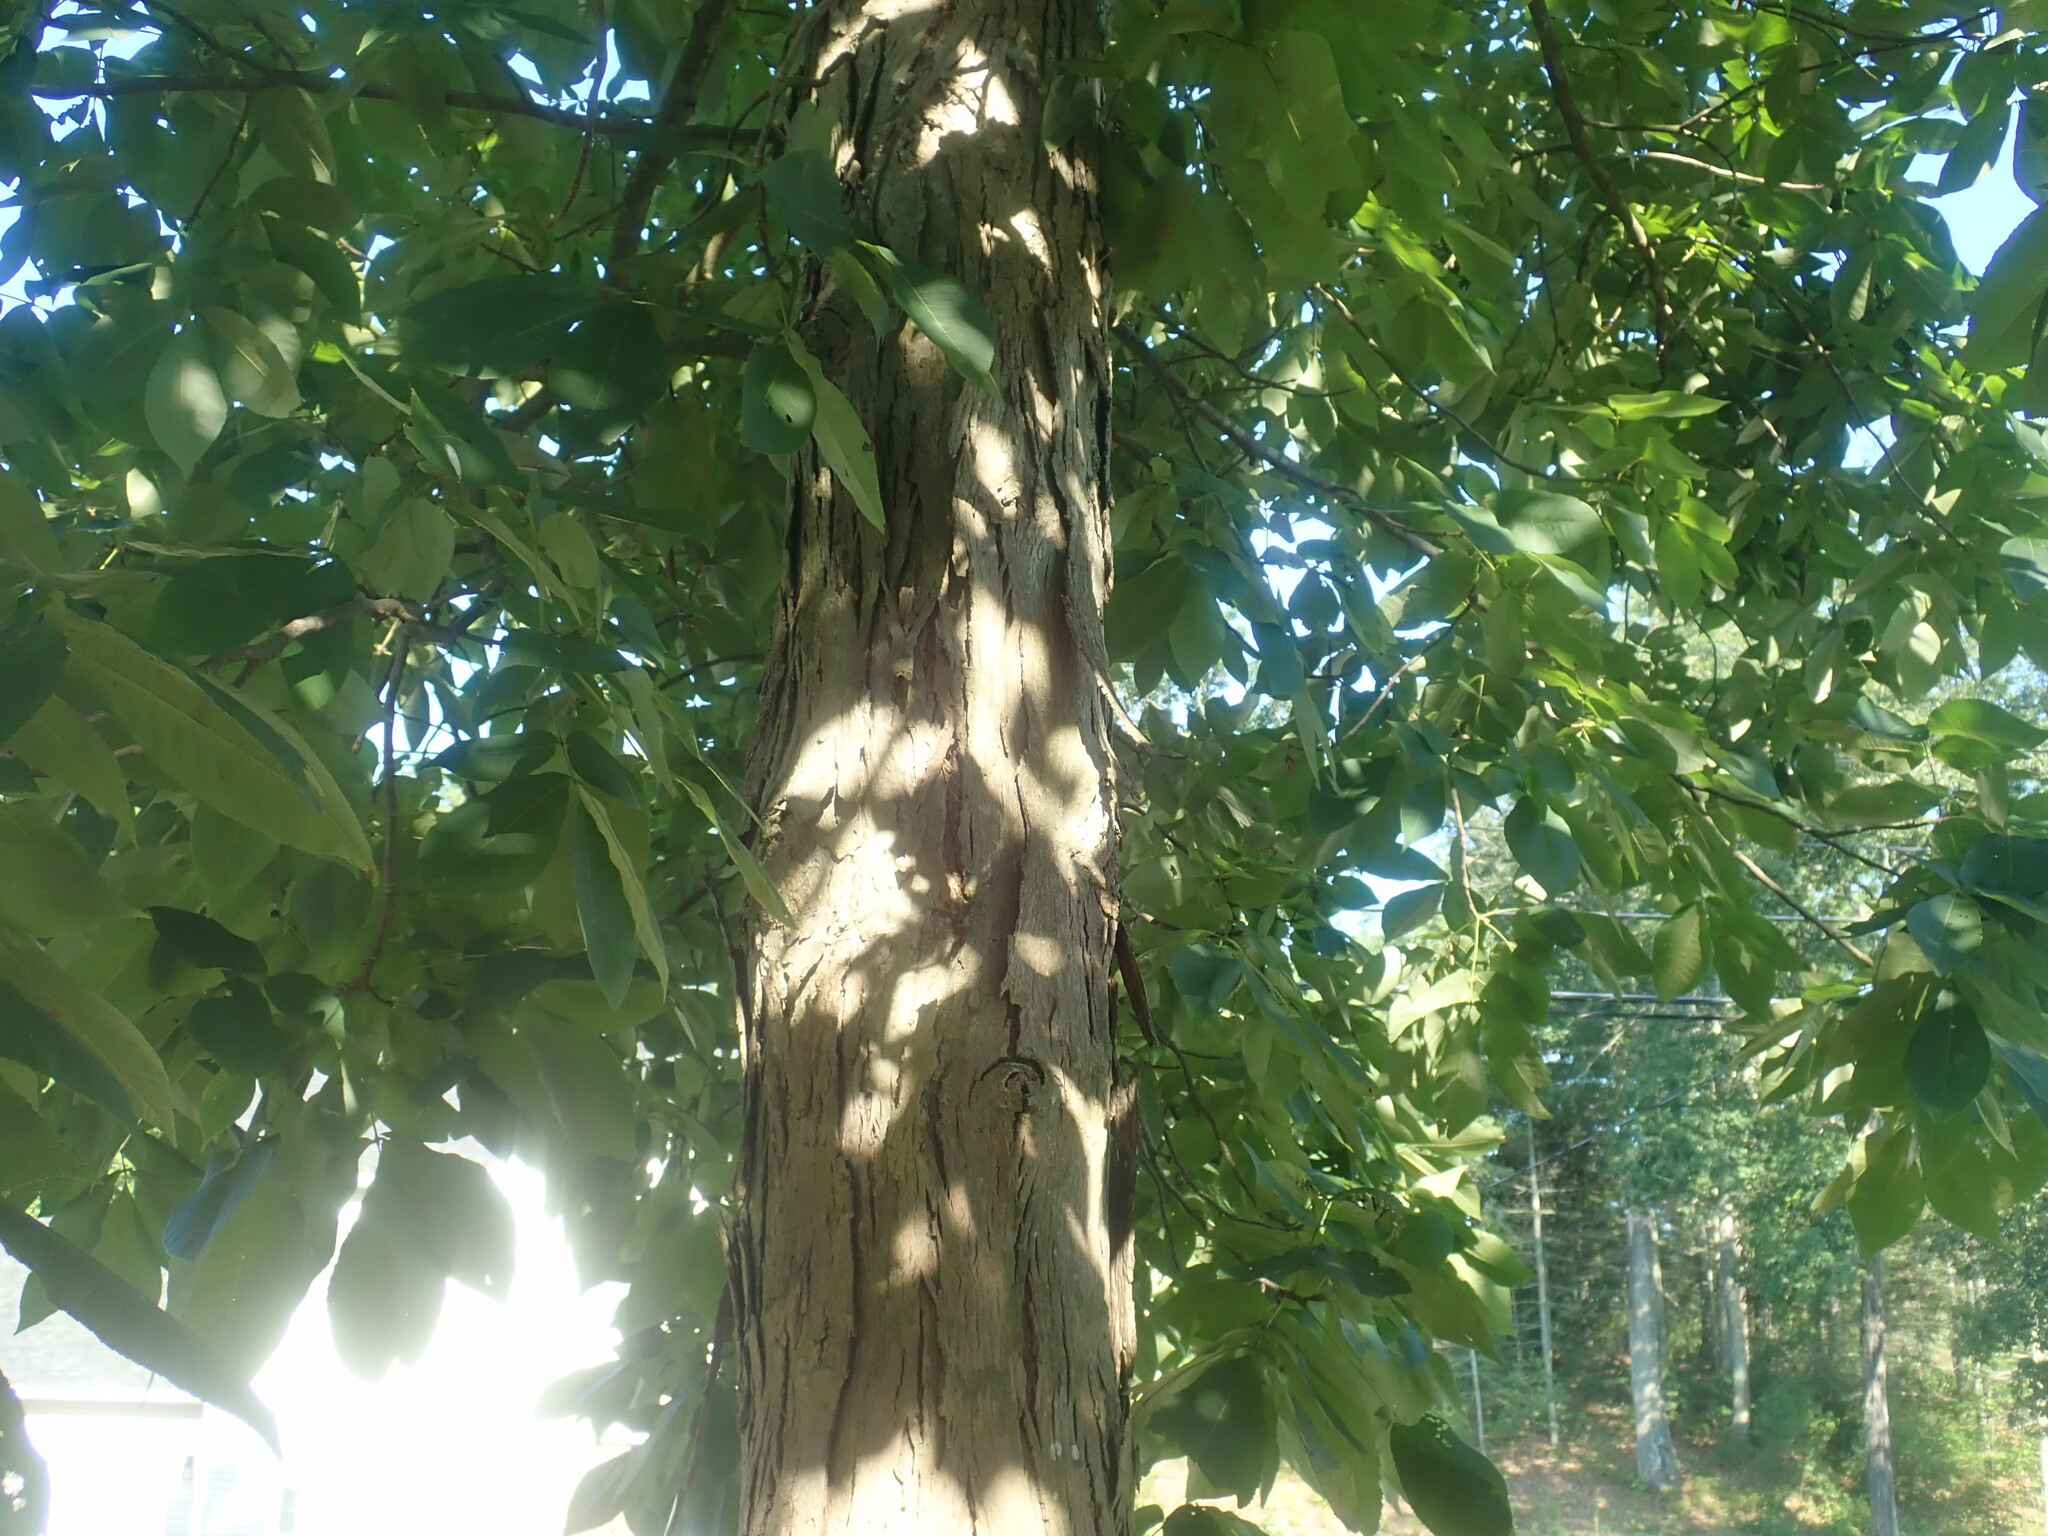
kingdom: Plantae
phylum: Tracheophyta
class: Magnoliopsida
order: Fagales
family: Juglandaceae
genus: Carya
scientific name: Carya ovata
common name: Shagbark hickory
